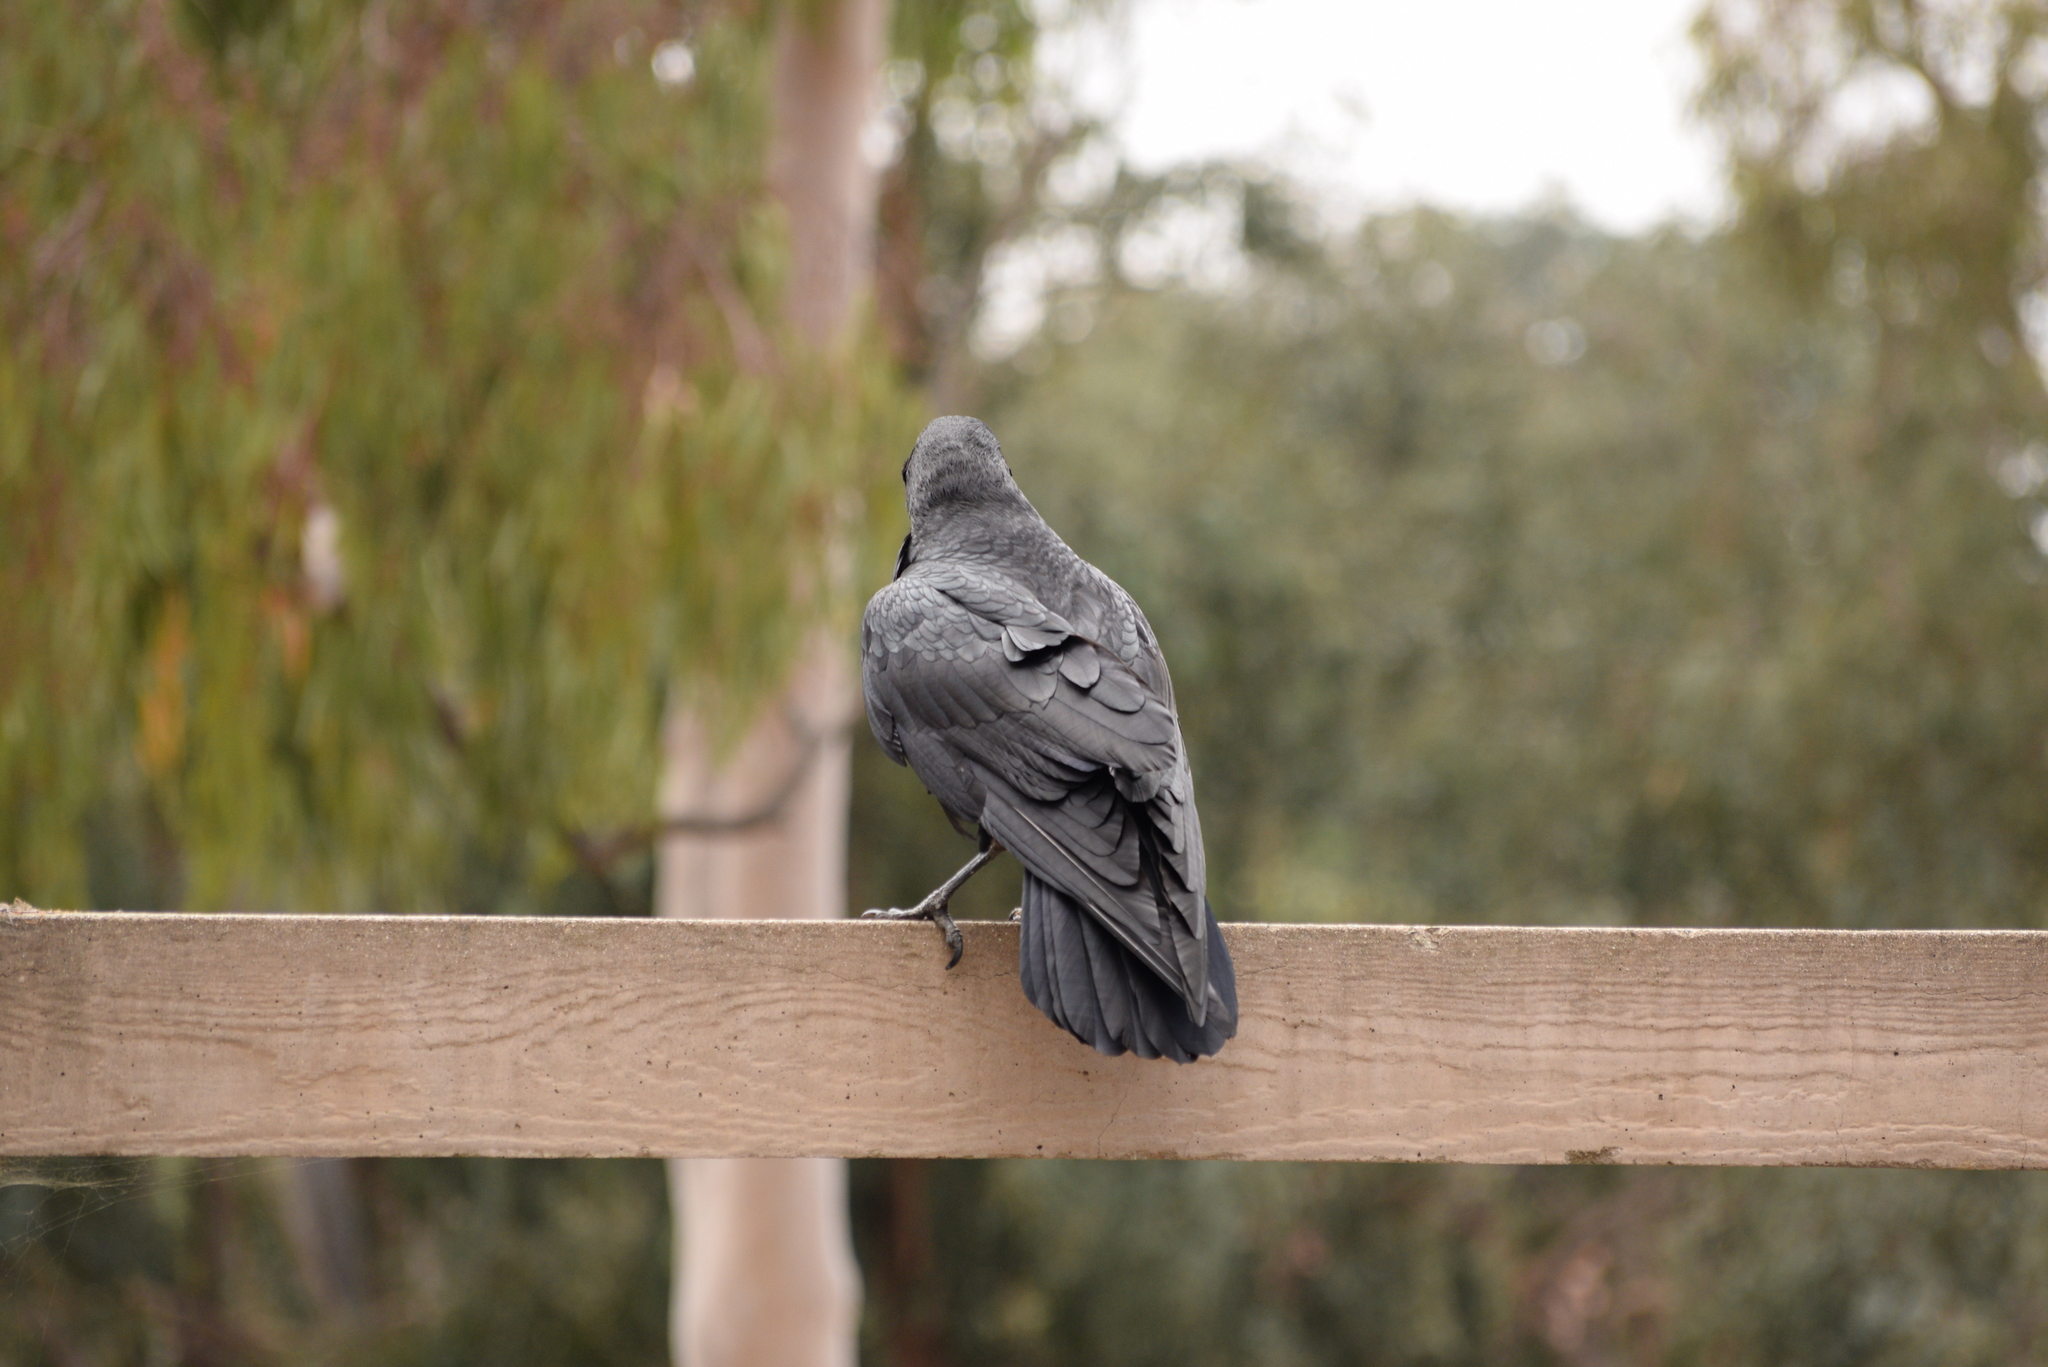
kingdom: Animalia
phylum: Chordata
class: Aves
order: Passeriformes
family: Corvidae
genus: Corvus
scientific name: Corvus corax
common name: Common raven
